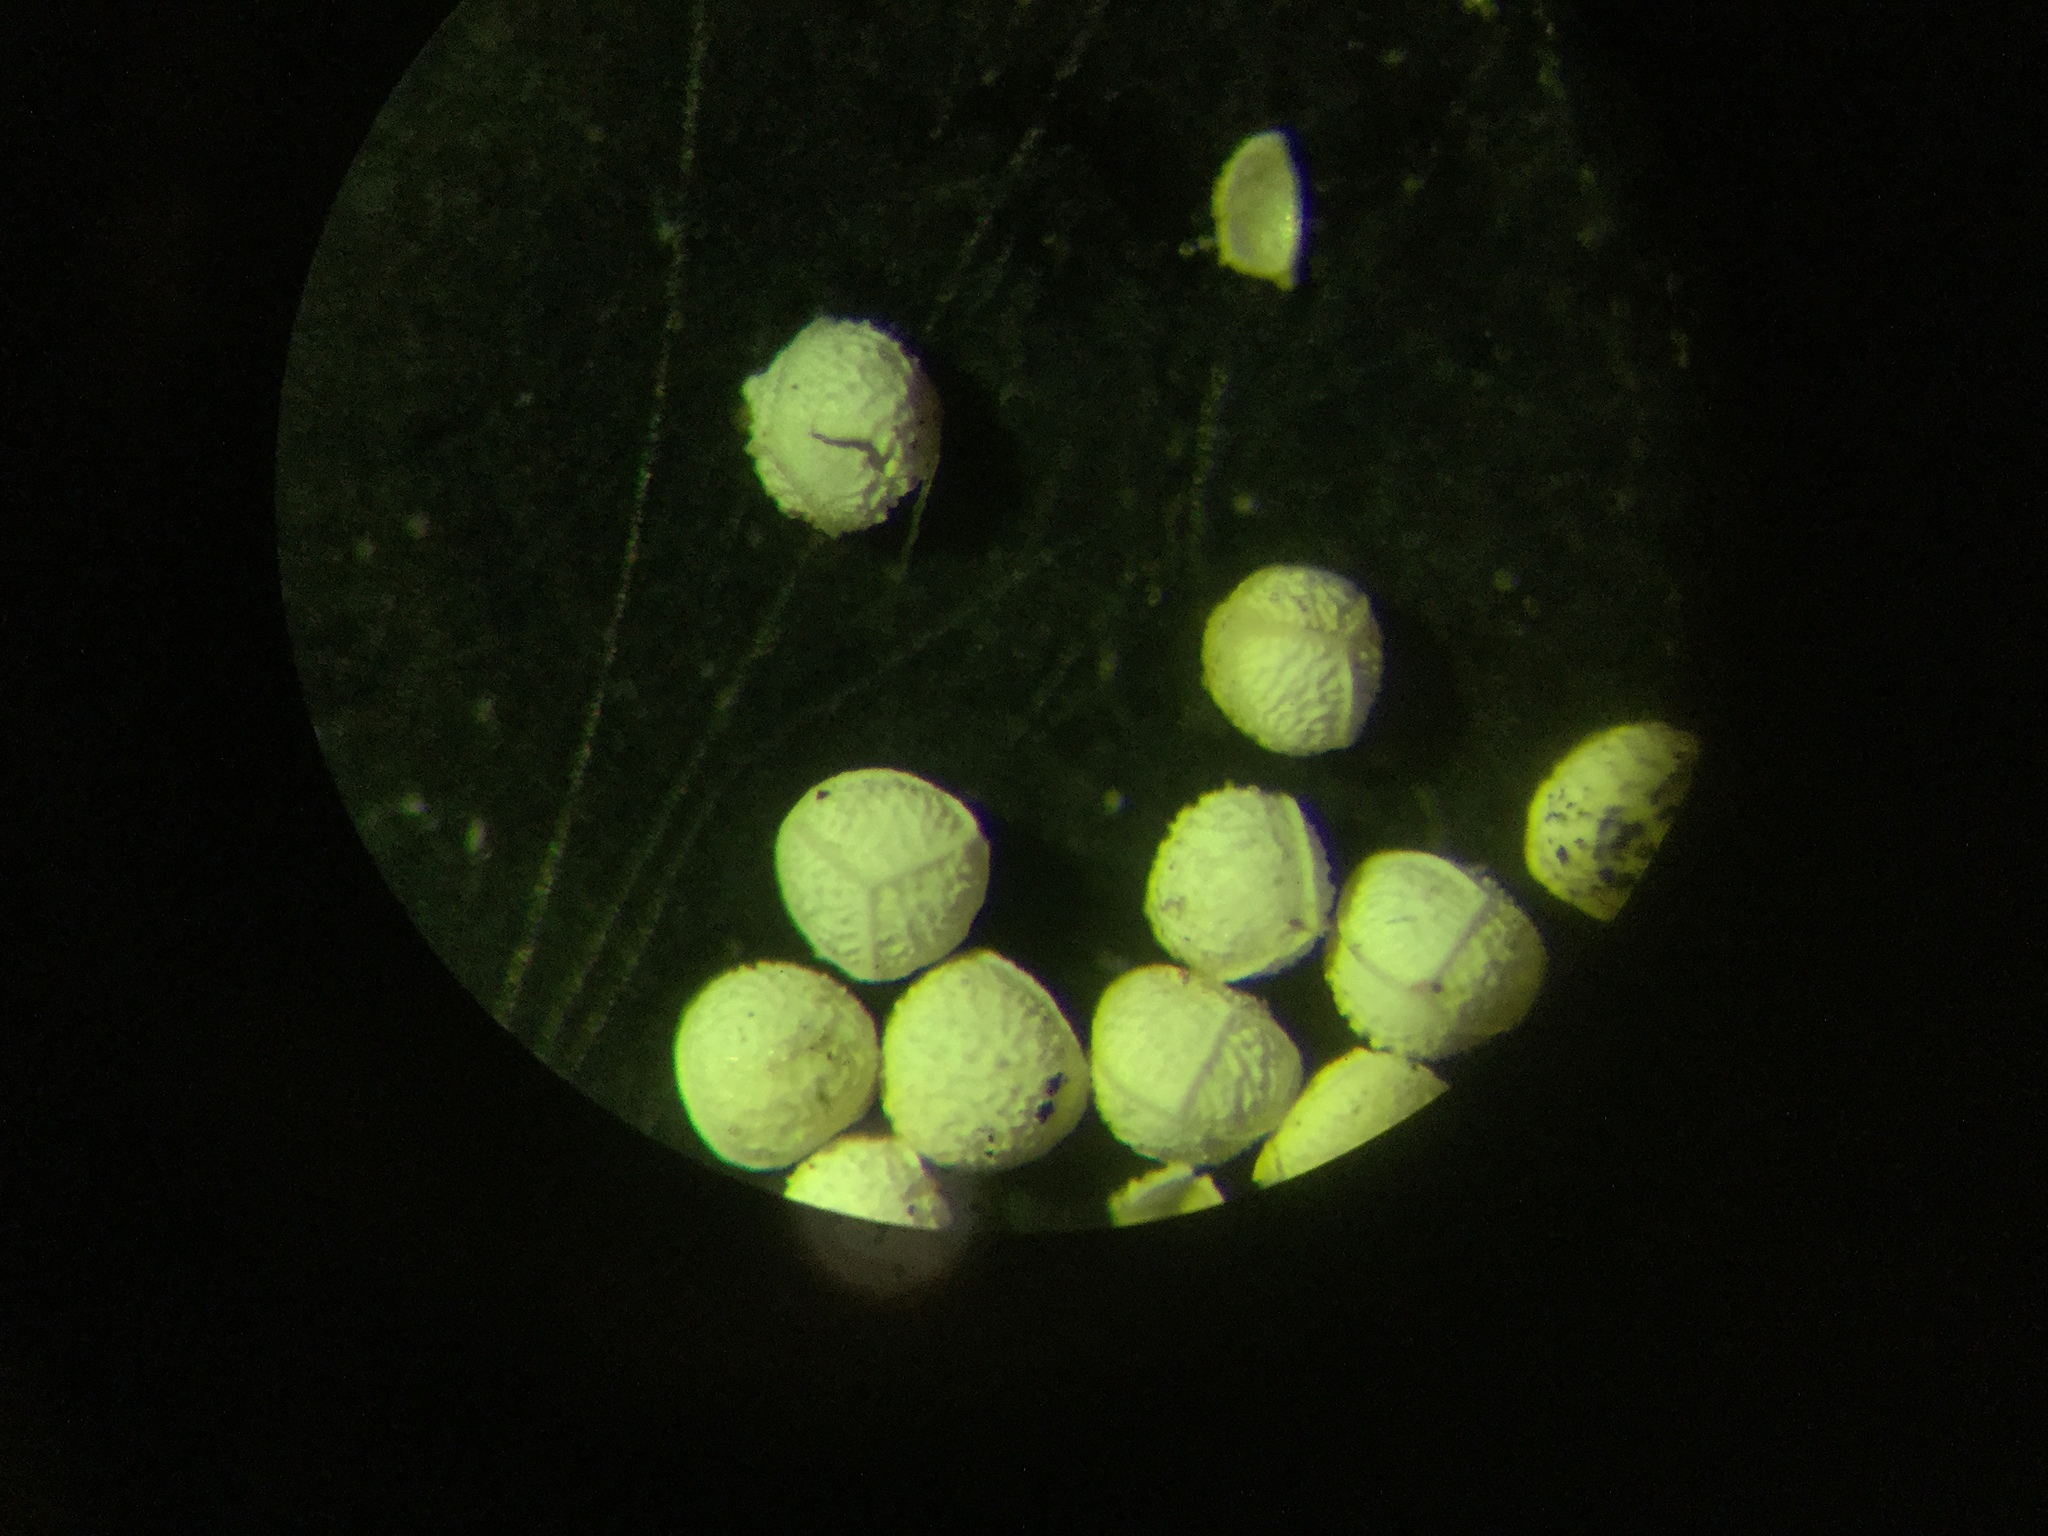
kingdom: Plantae
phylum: Tracheophyta
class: Lycopodiopsida
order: Isoetales
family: Isoetaceae
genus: Isoetes
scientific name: Isoetes tuckermanii
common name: Tuckerman's quillwort
